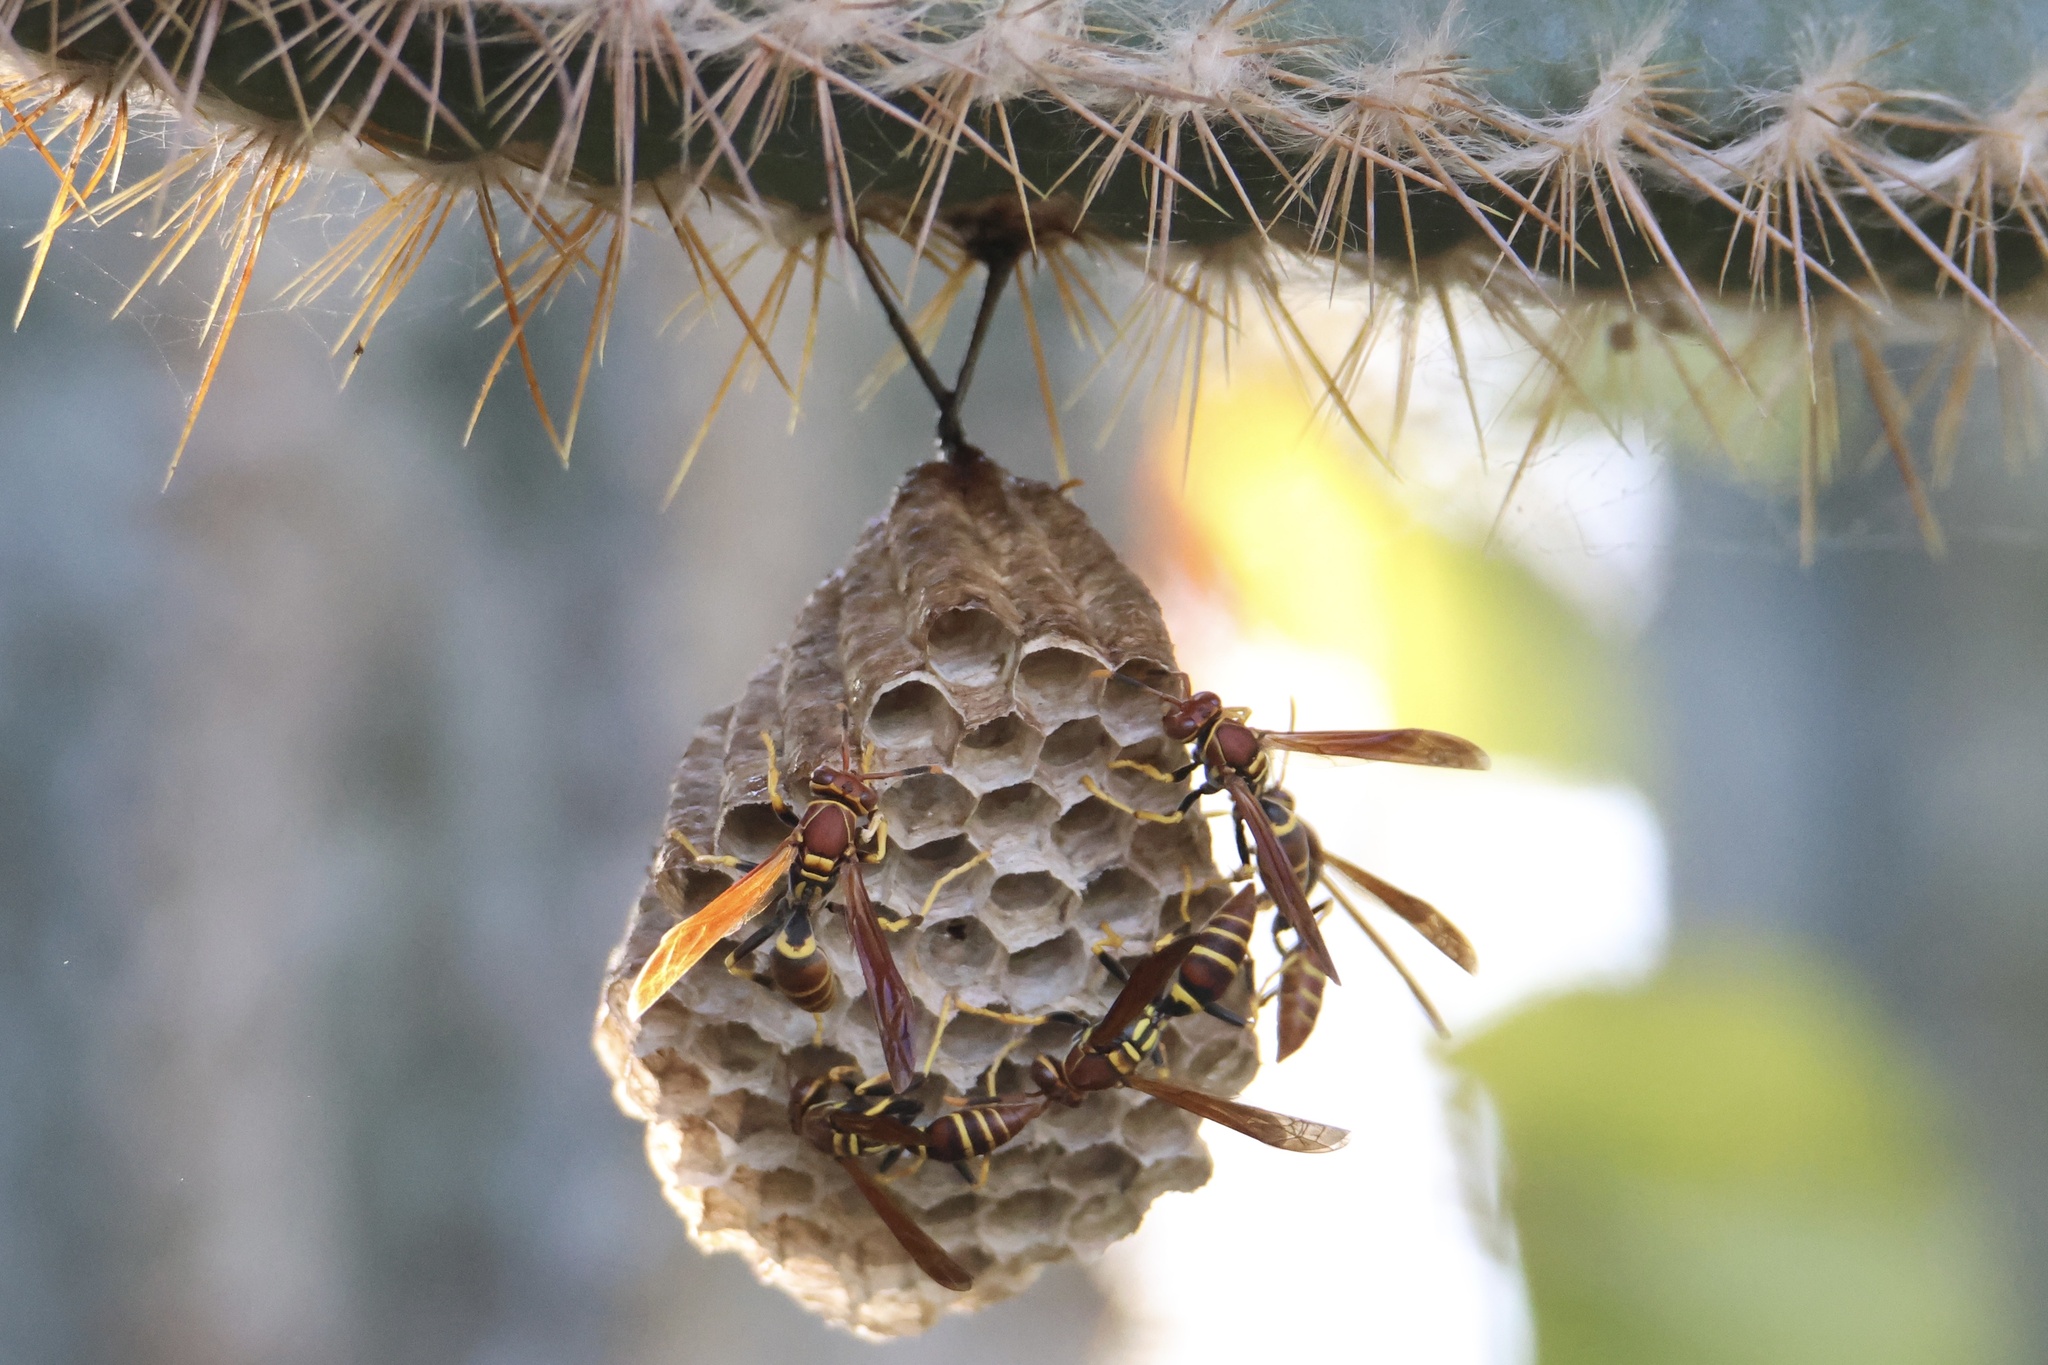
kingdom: Animalia
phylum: Arthropoda
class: Insecta
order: Hymenoptera
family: Eumenidae
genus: Polistes
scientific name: Polistes crinitus
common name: Jack spaniard
